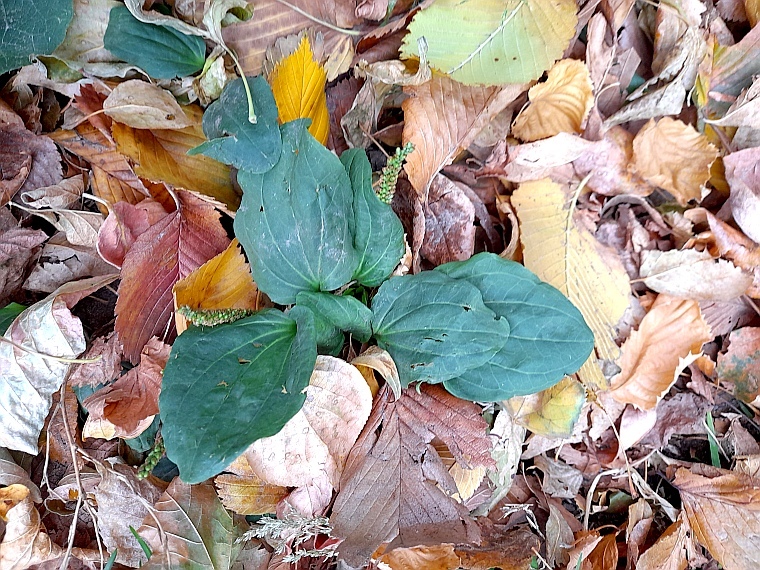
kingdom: Plantae
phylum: Tracheophyta
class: Magnoliopsida
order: Lamiales
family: Plantaginaceae
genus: Plantago
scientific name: Plantago major
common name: Common plantain
